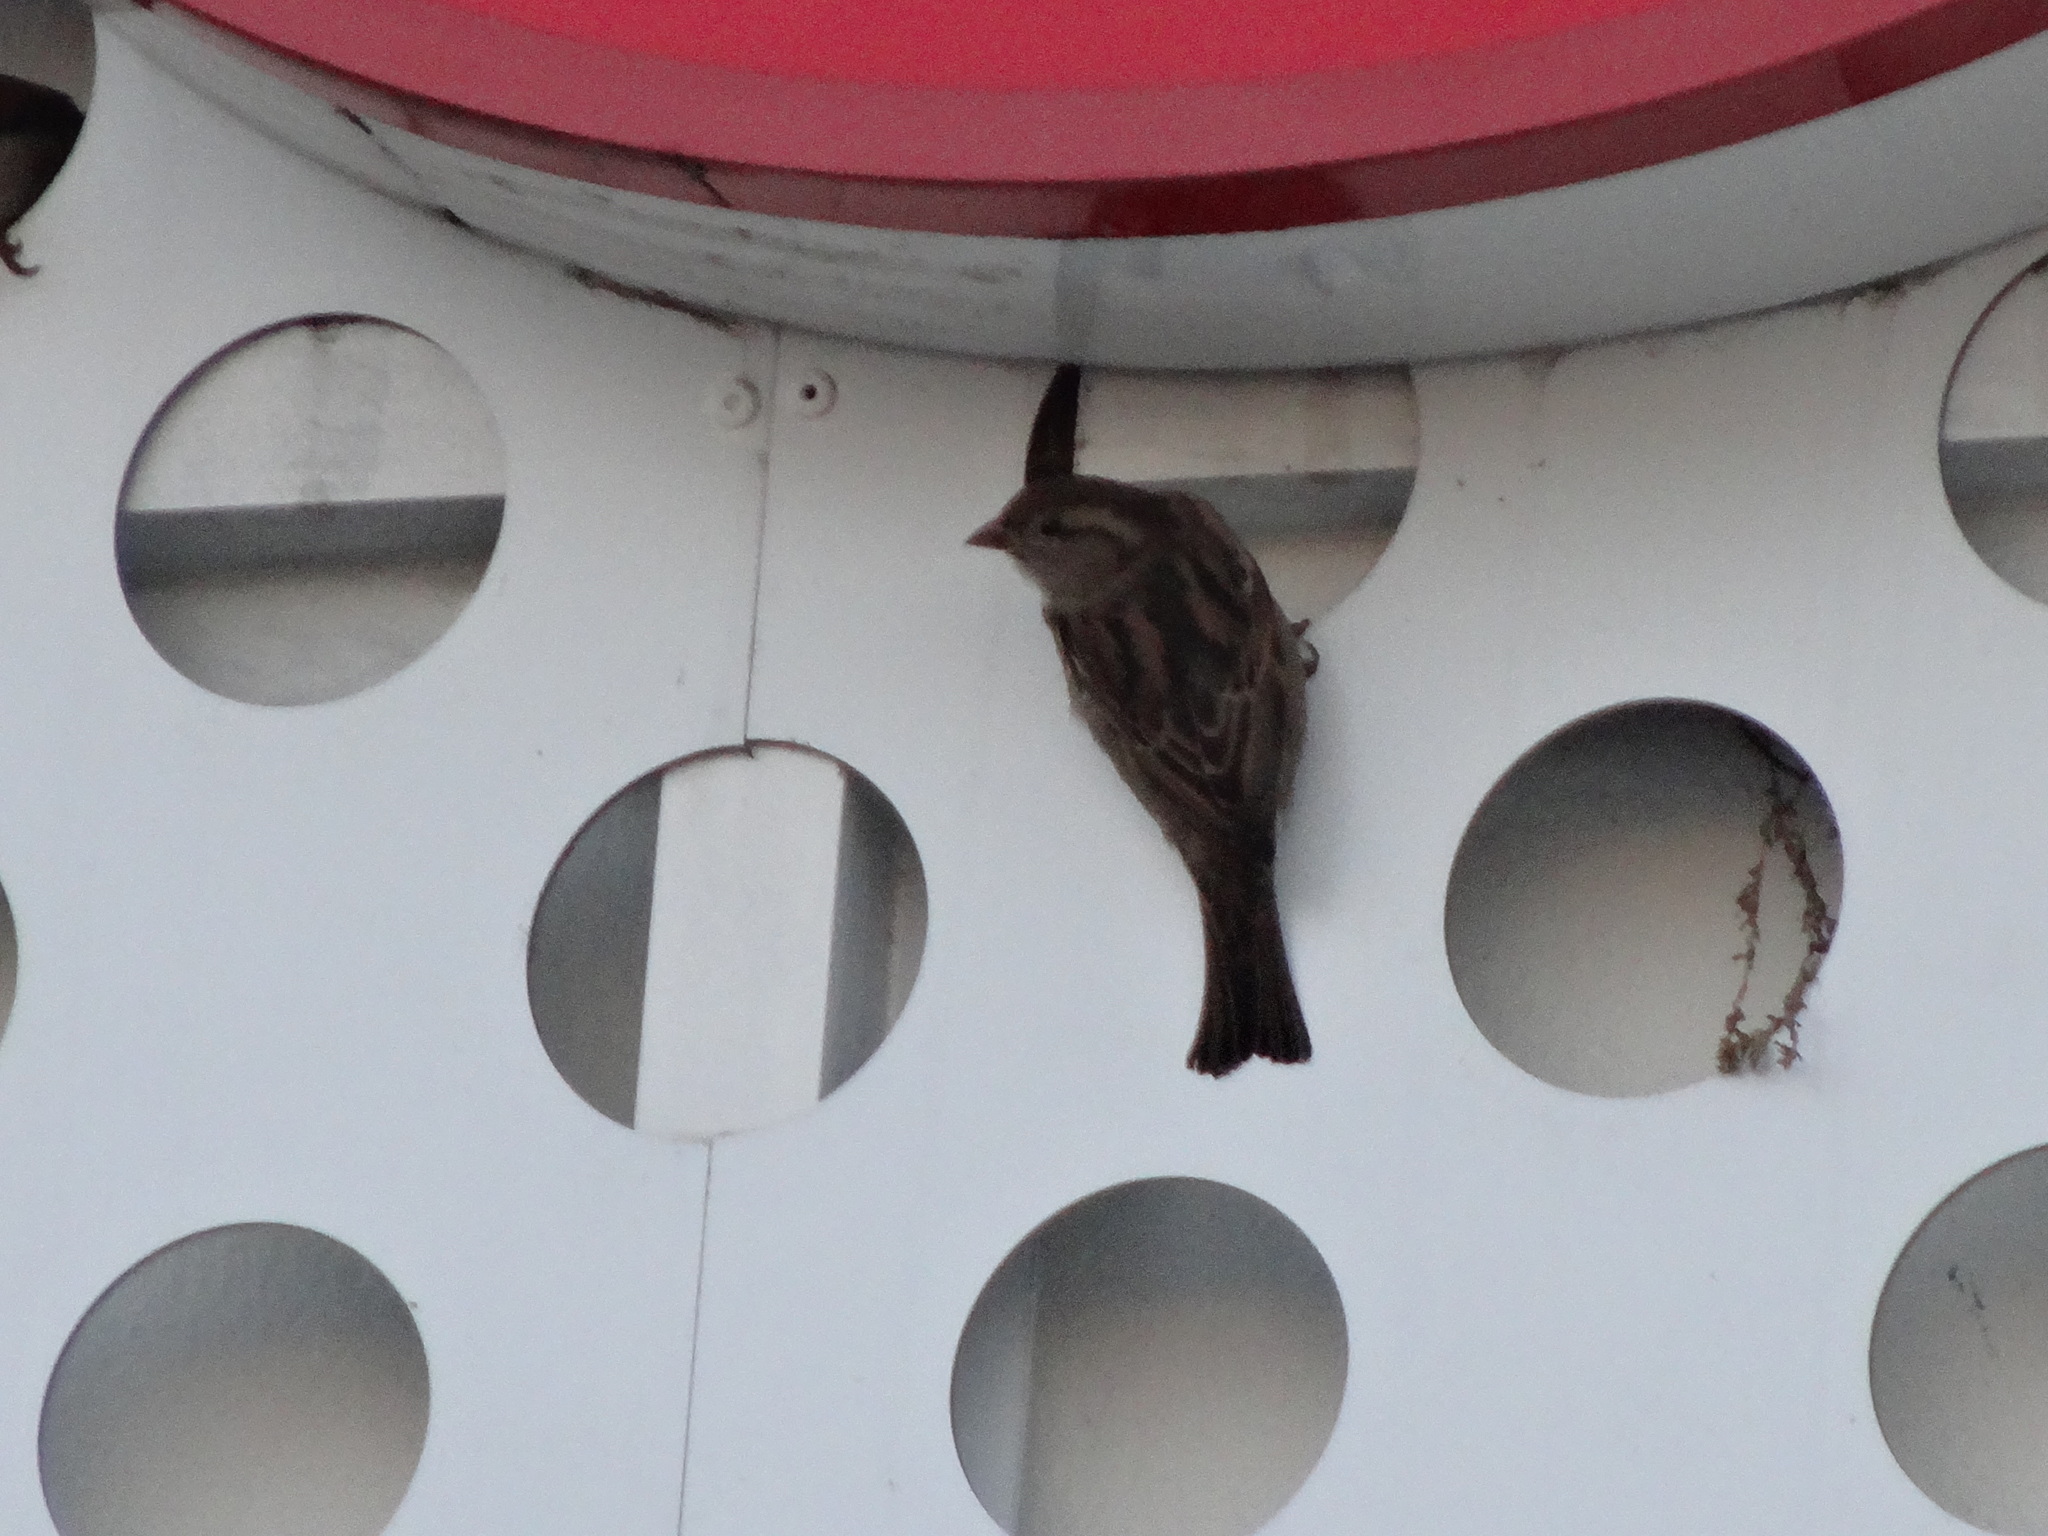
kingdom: Animalia
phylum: Chordata
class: Aves
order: Passeriformes
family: Passeridae
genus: Passer
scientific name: Passer domesticus
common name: House sparrow
